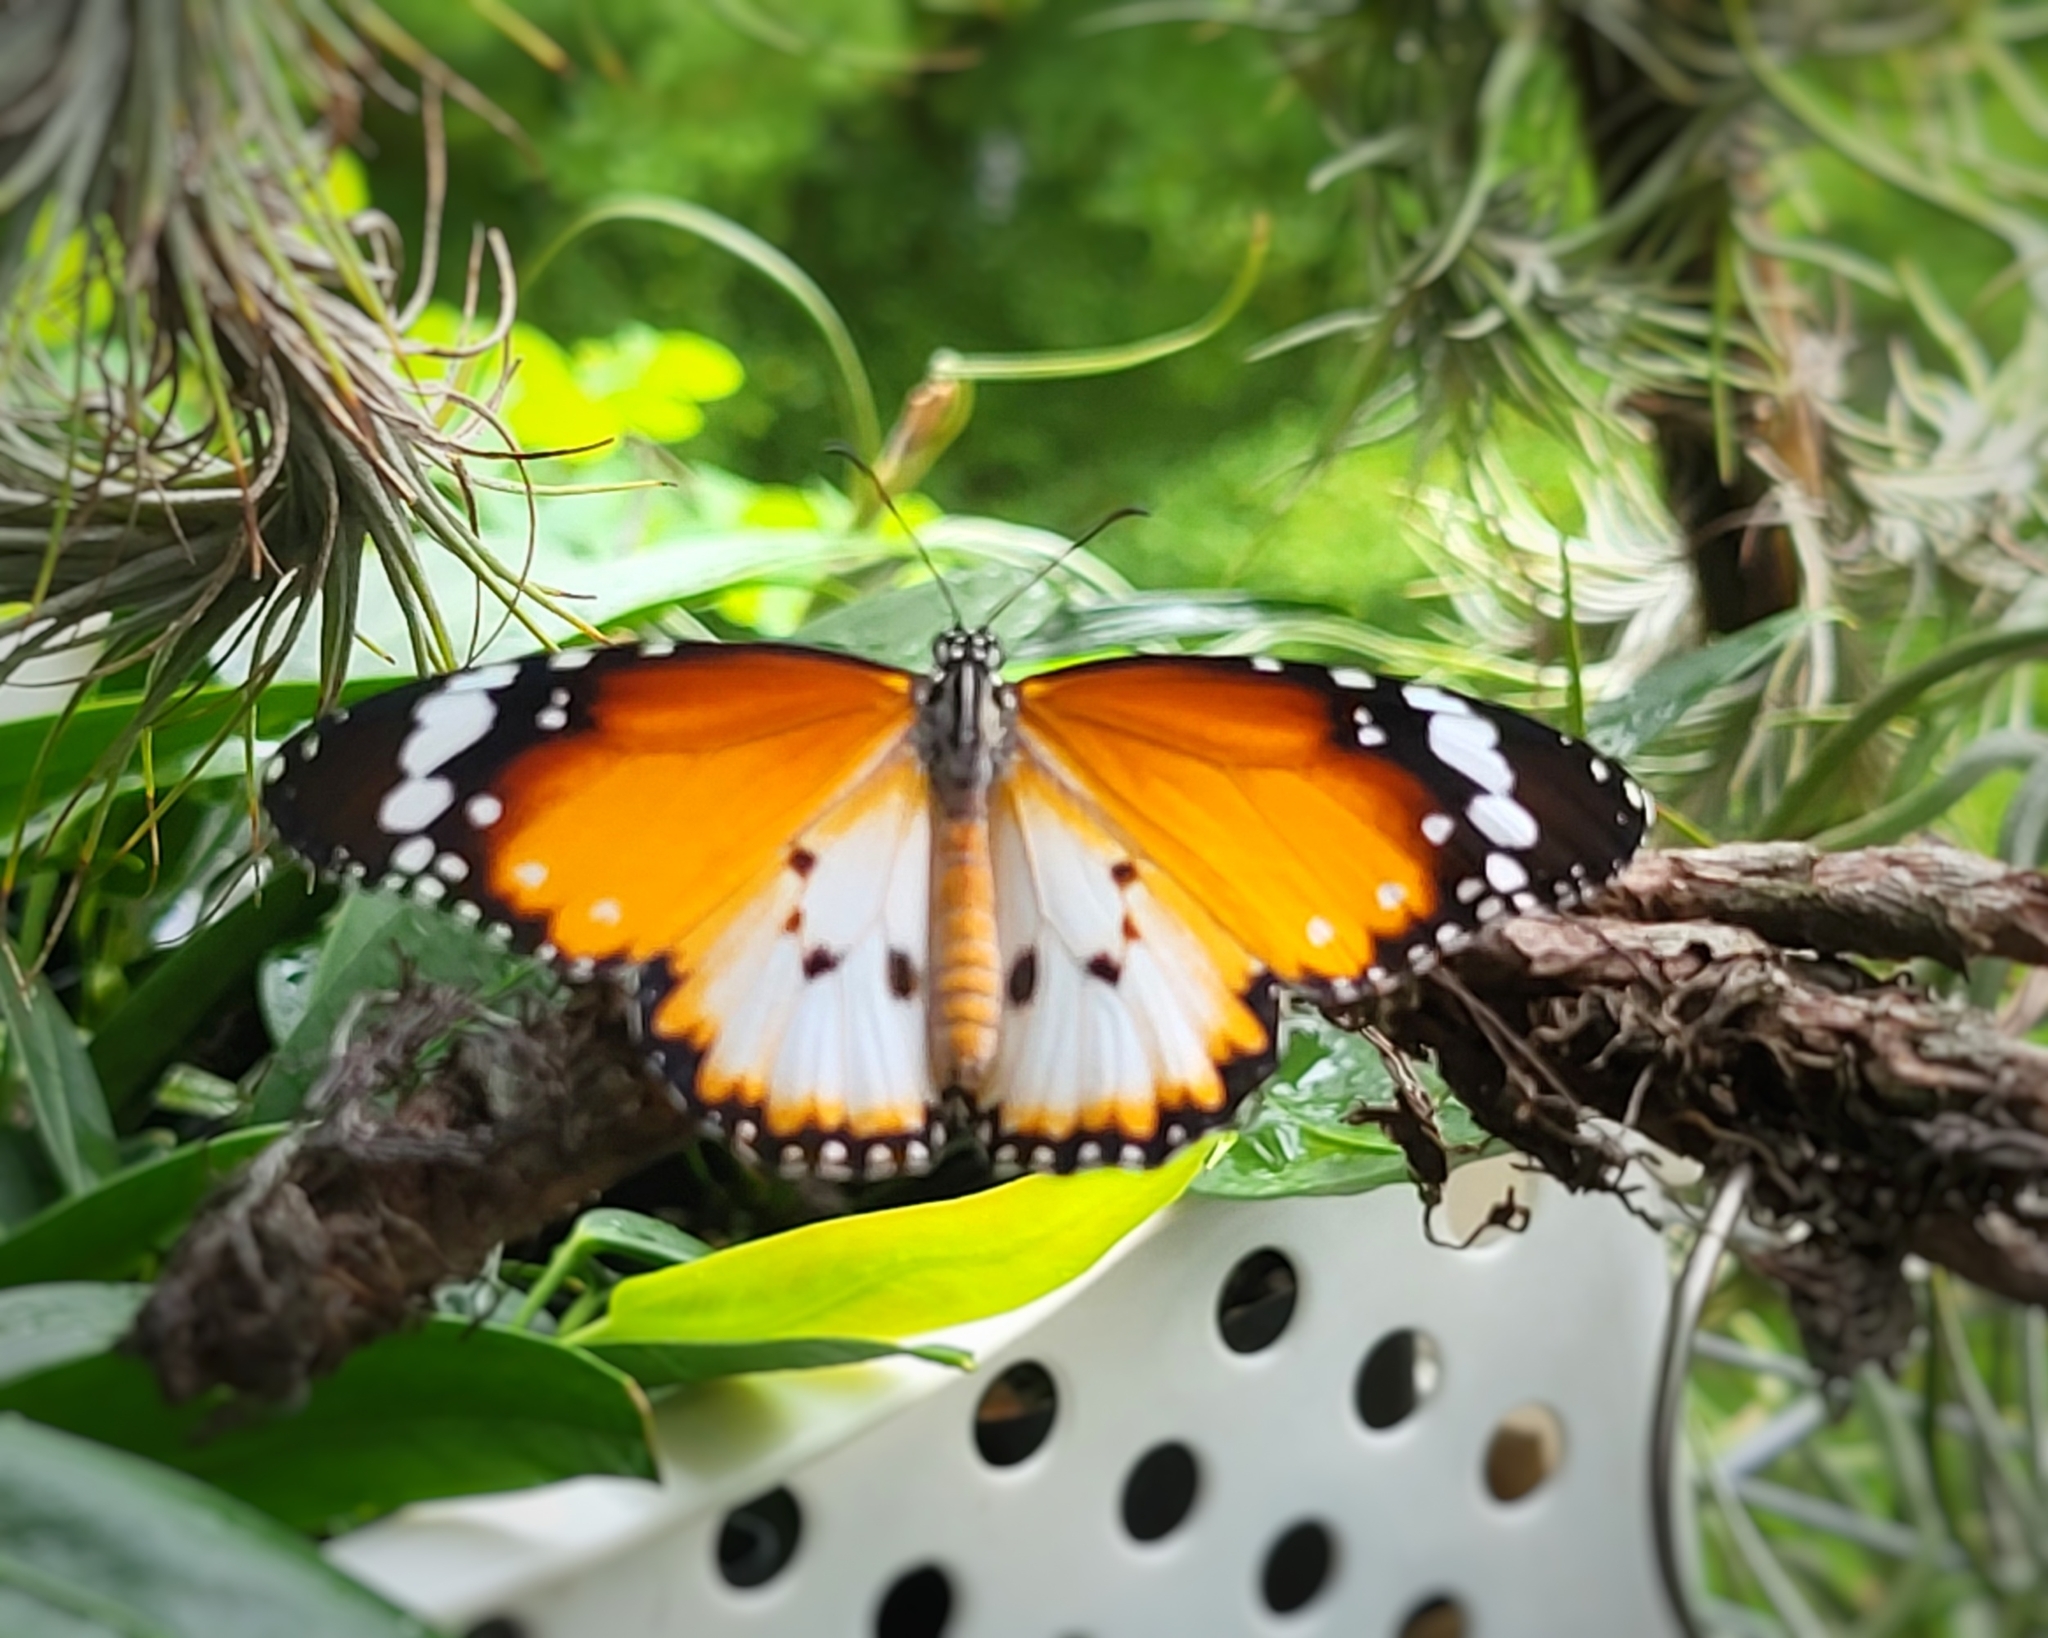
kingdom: Animalia
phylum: Arthropoda
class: Insecta
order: Lepidoptera
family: Nymphalidae
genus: Danaus
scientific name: Danaus chrysippus
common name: Plain tiger
